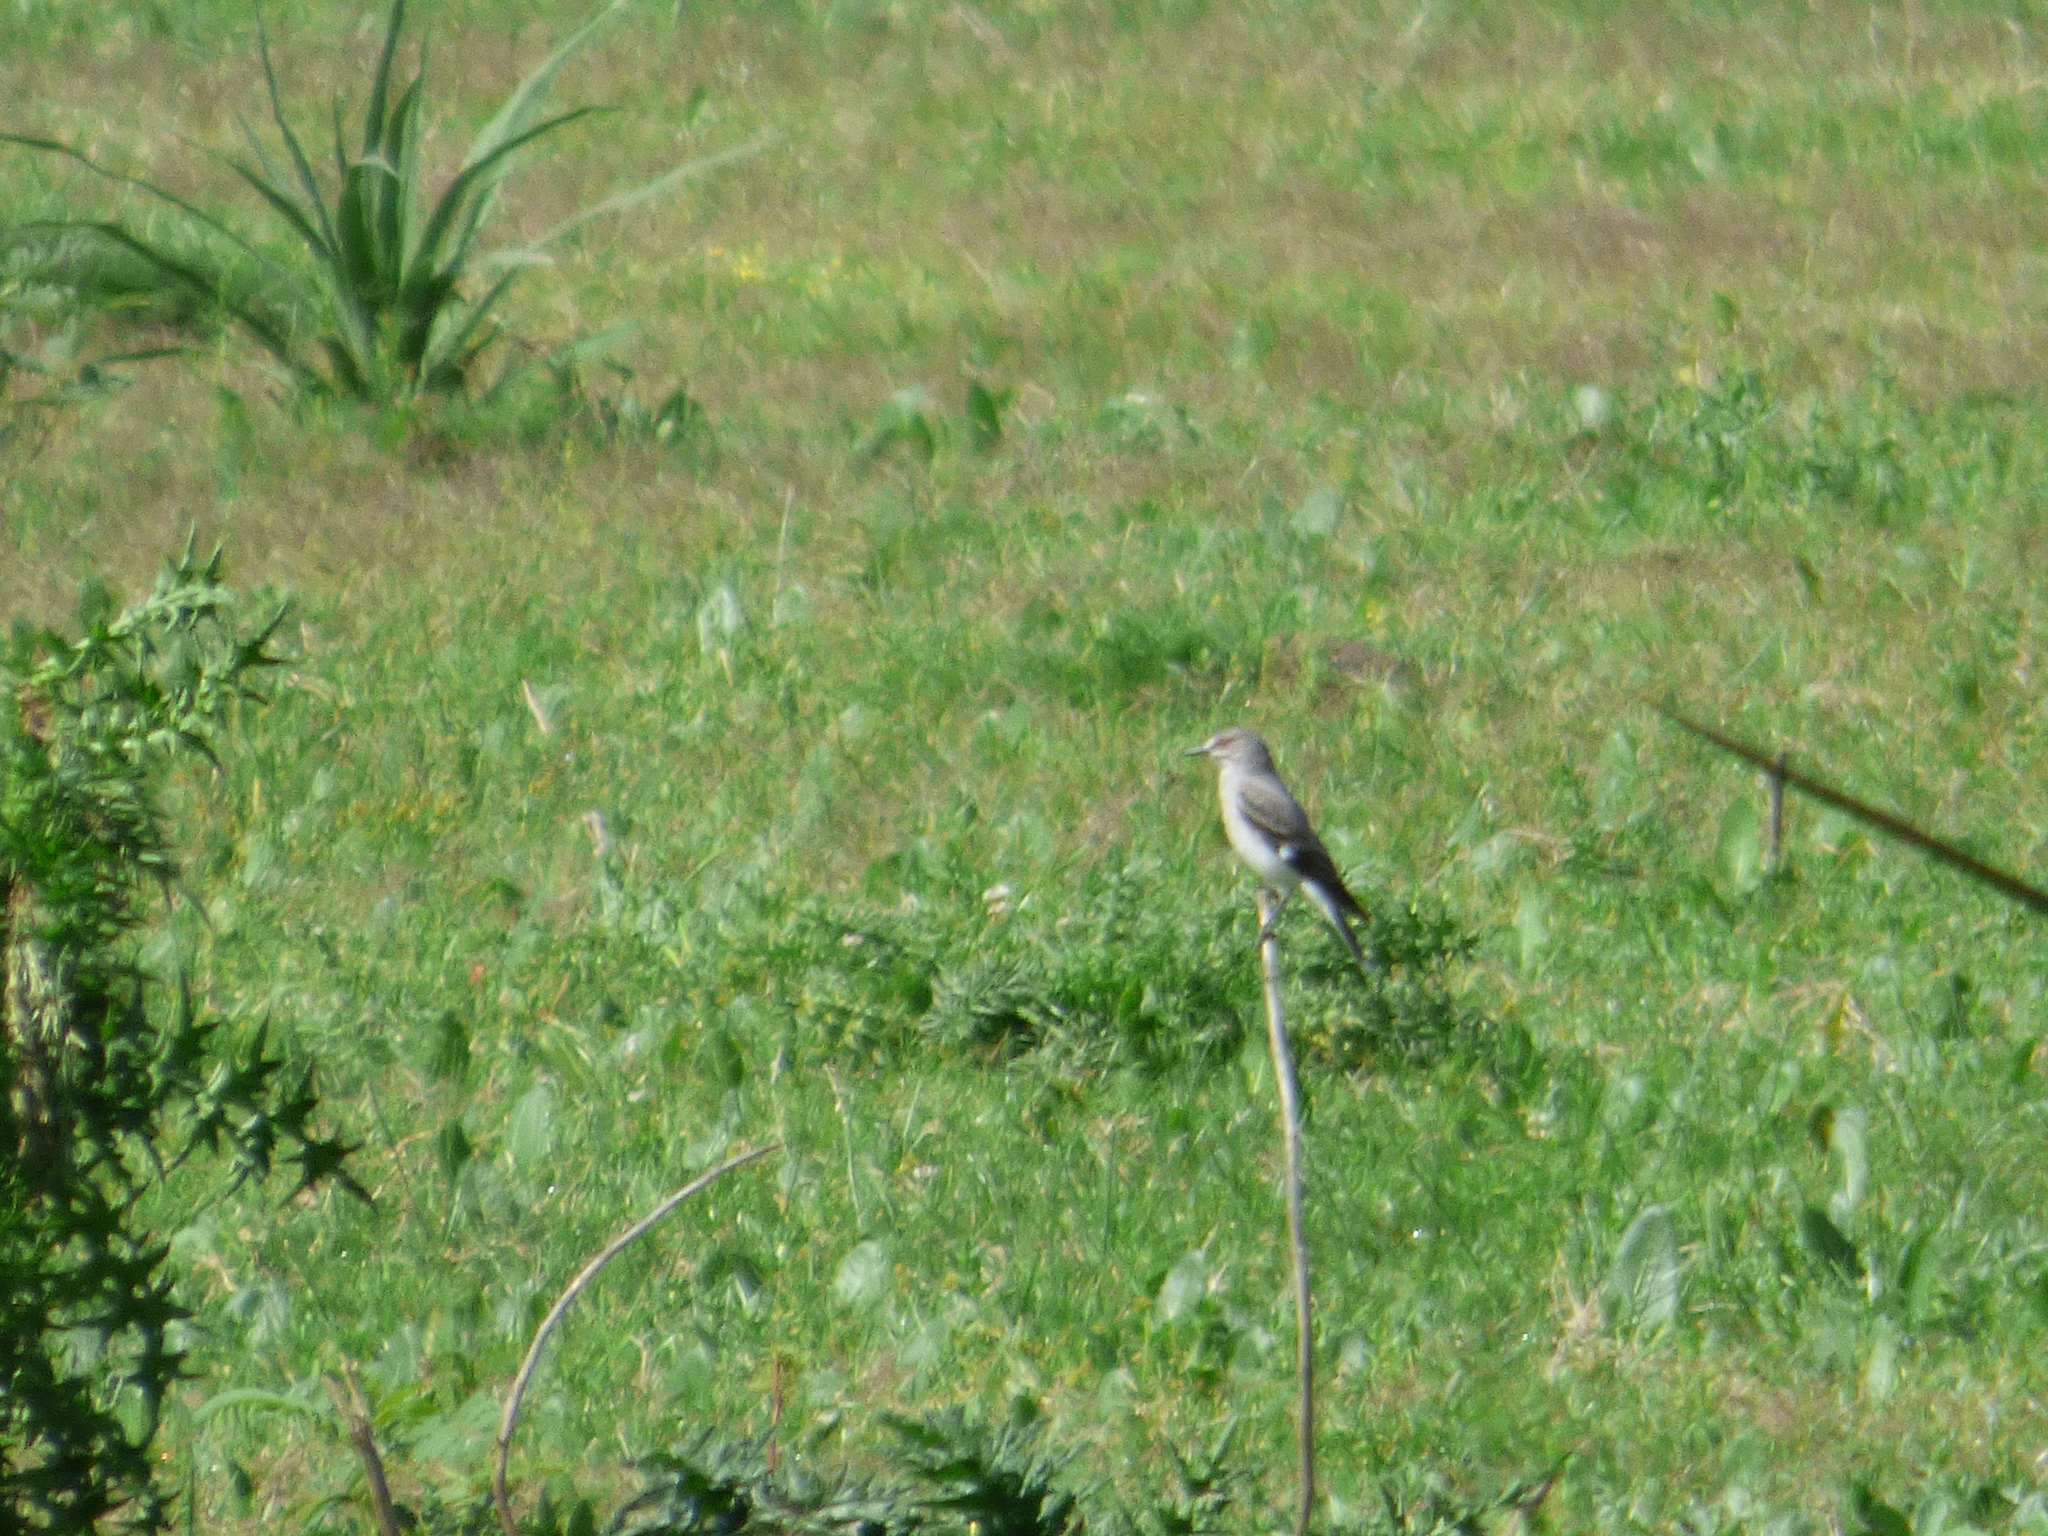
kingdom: Animalia
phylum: Chordata
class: Aves
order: Passeriformes
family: Tyrannidae
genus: Xolmis
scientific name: Xolmis cinereus
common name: Grey monjita
